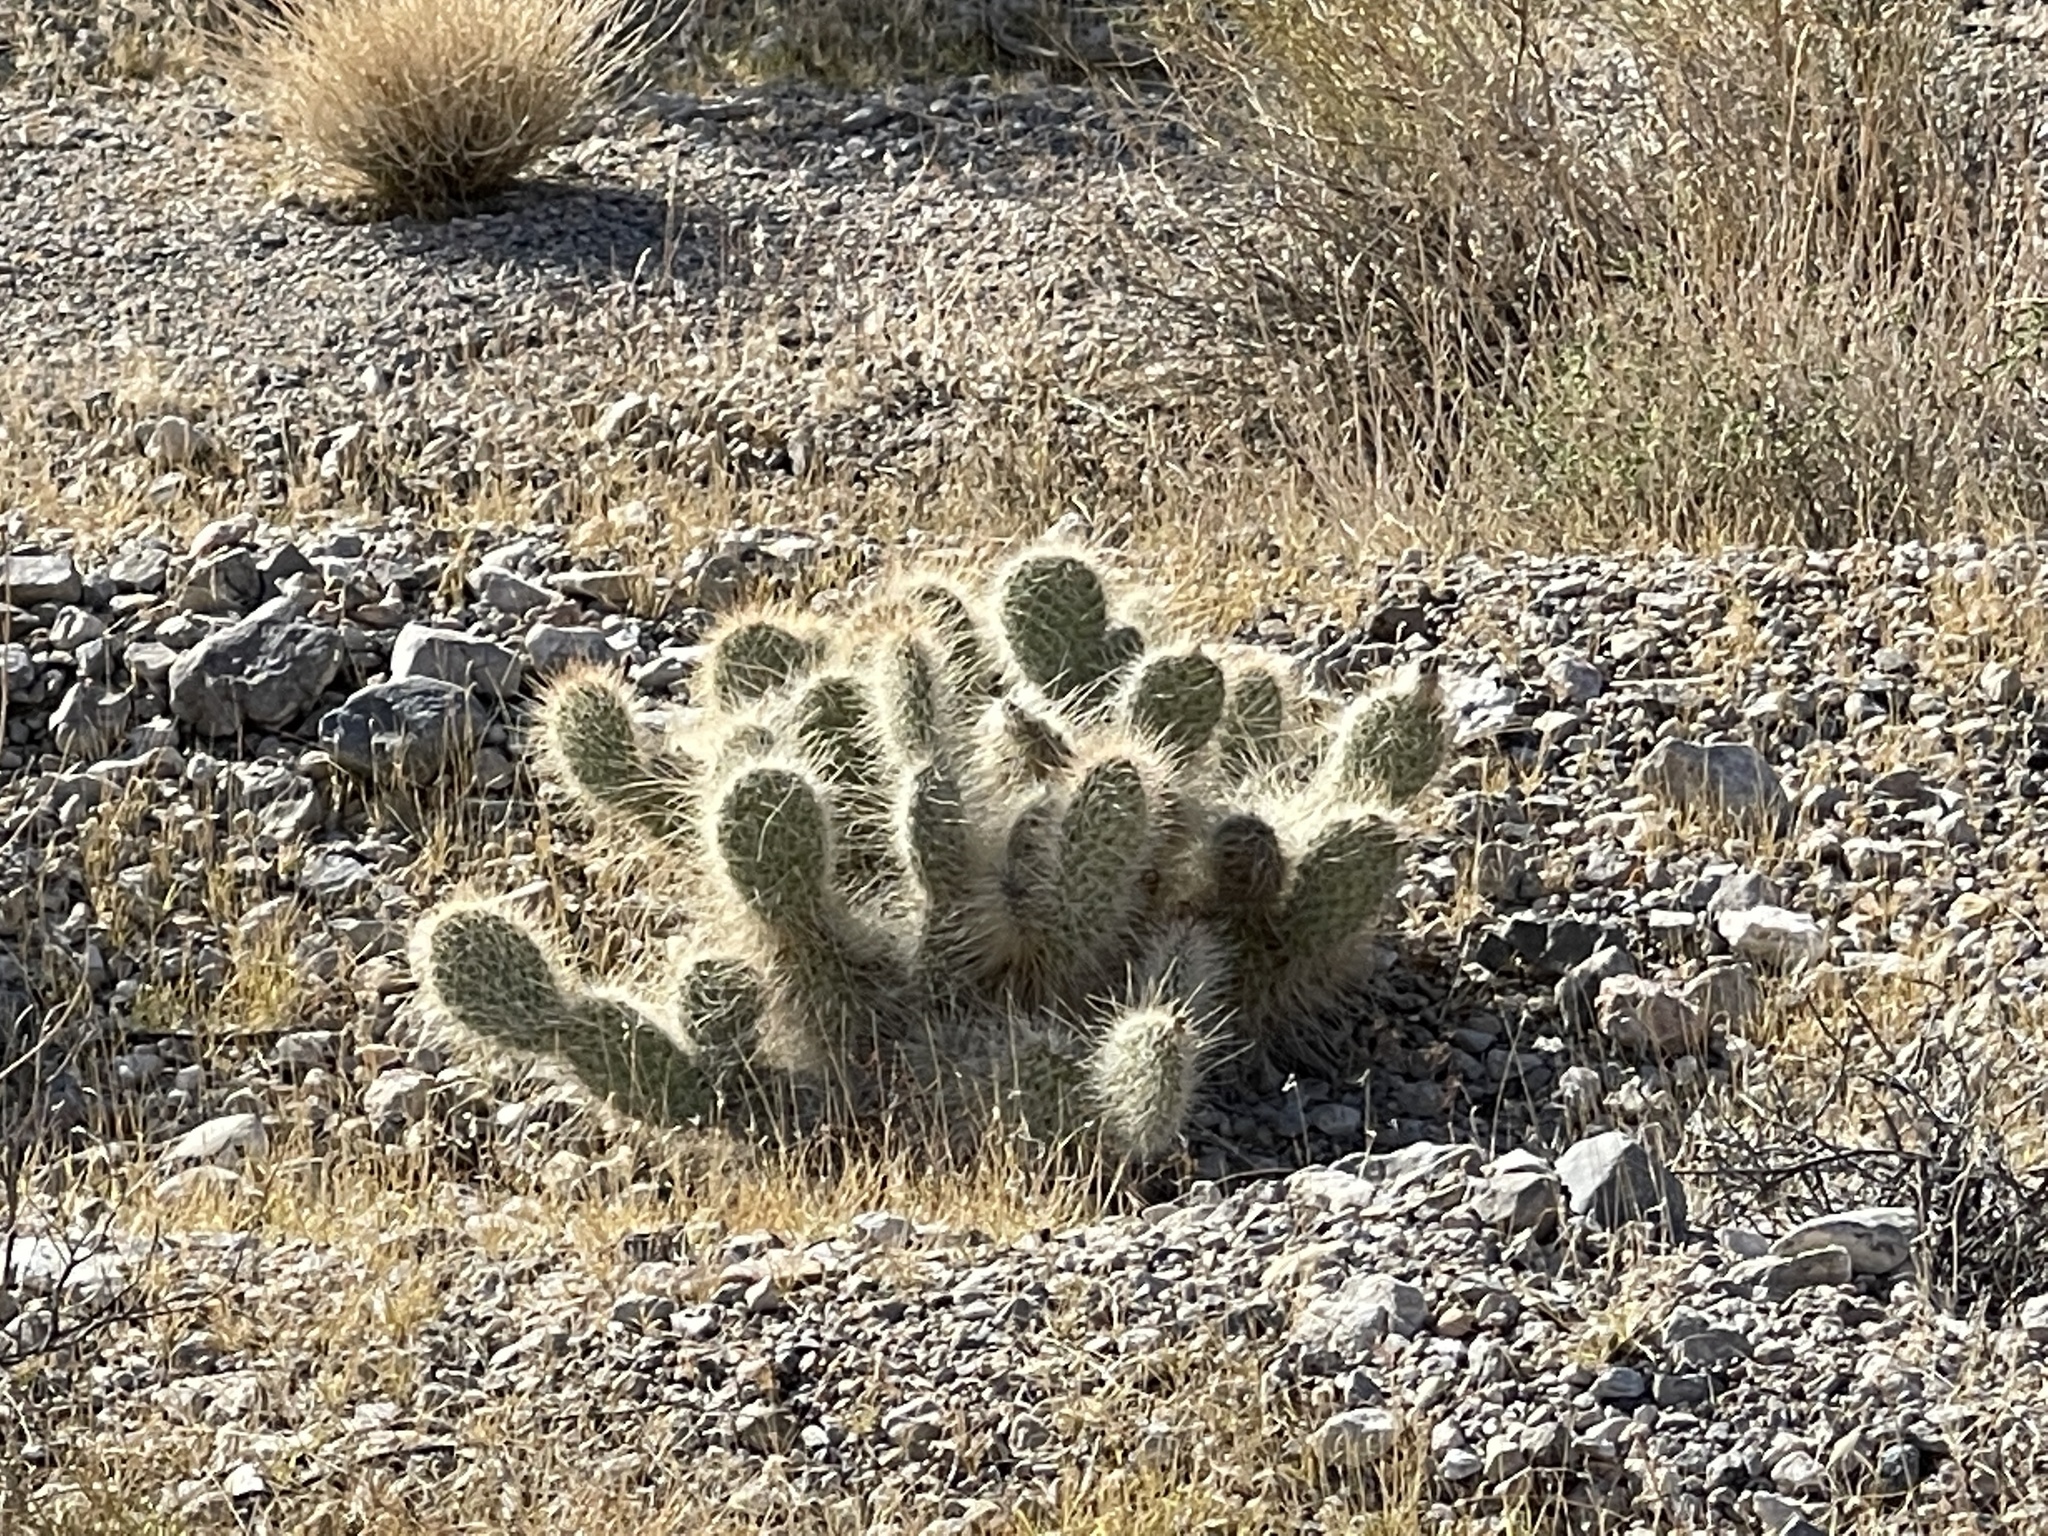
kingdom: Plantae
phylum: Tracheophyta
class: Magnoliopsida
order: Caryophyllales
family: Cactaceae
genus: Opuntia
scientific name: Opuntia polyacantha
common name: Plains prickly-pear
